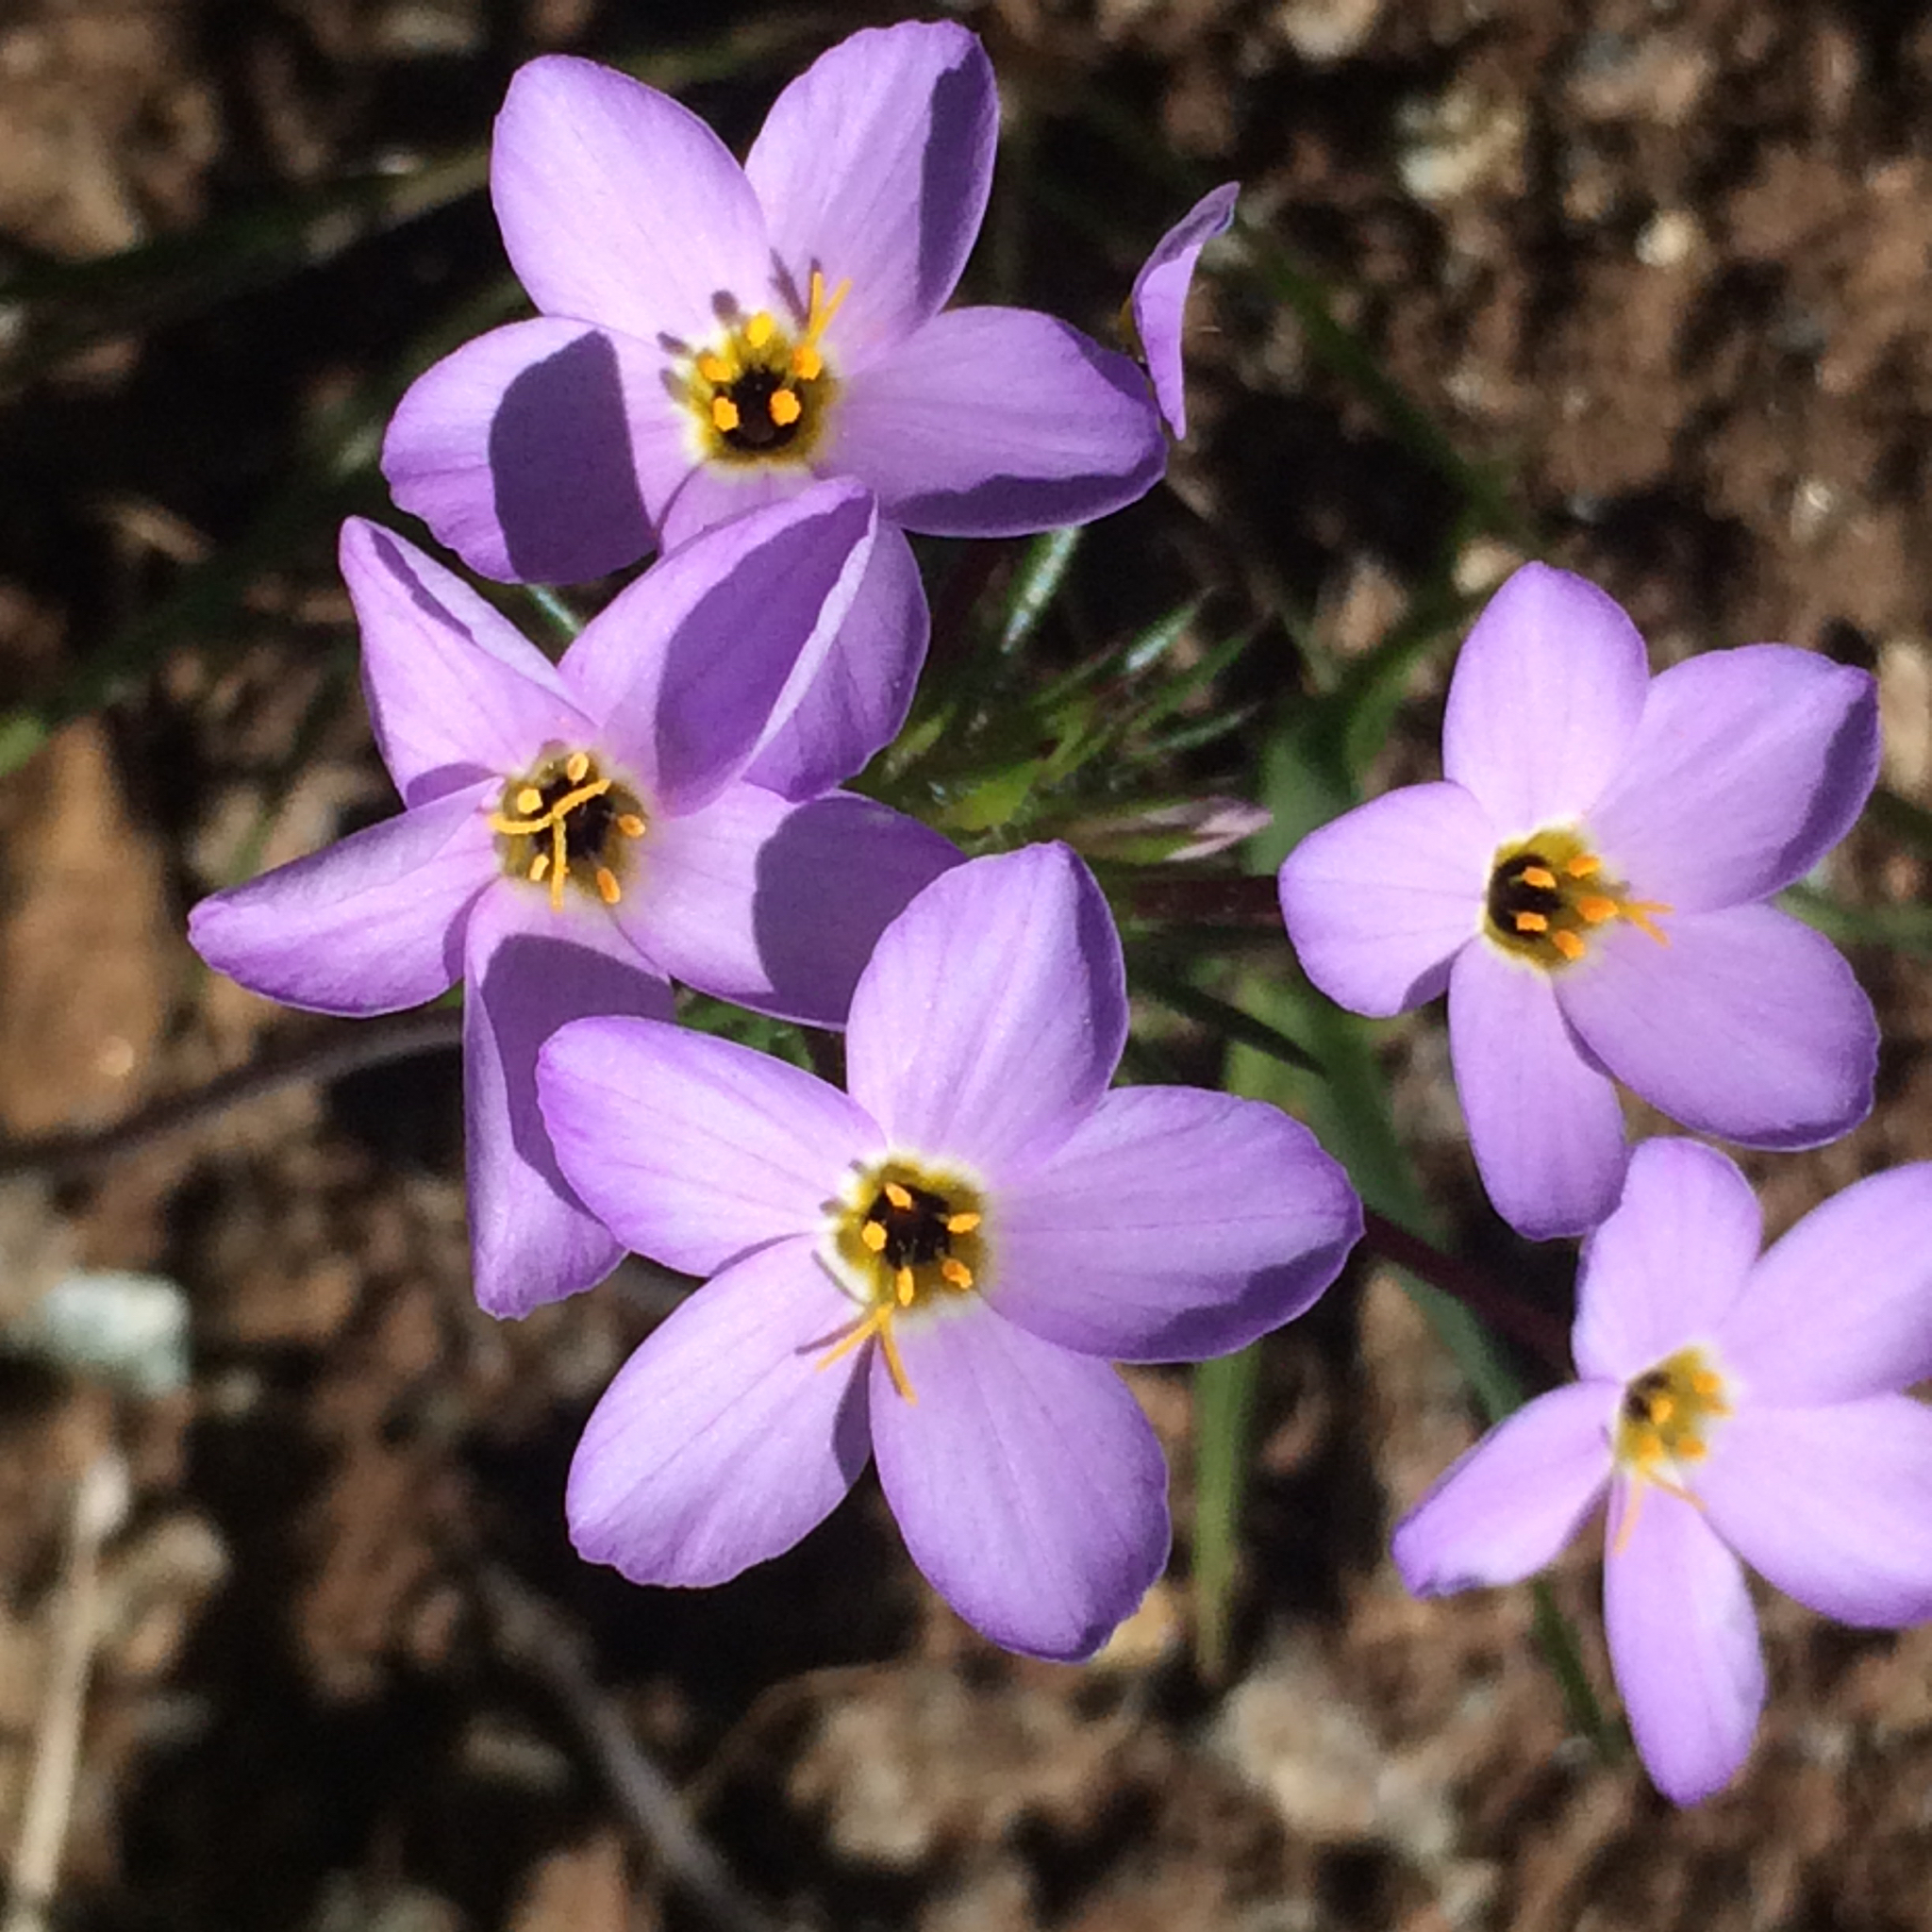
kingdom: Plantae
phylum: Tracheophyta
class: Magnoliopsida
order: Ericales
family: Polemoniaceae
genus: Leptosiphon
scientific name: Leptosiphon androsaceus
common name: False babystars
